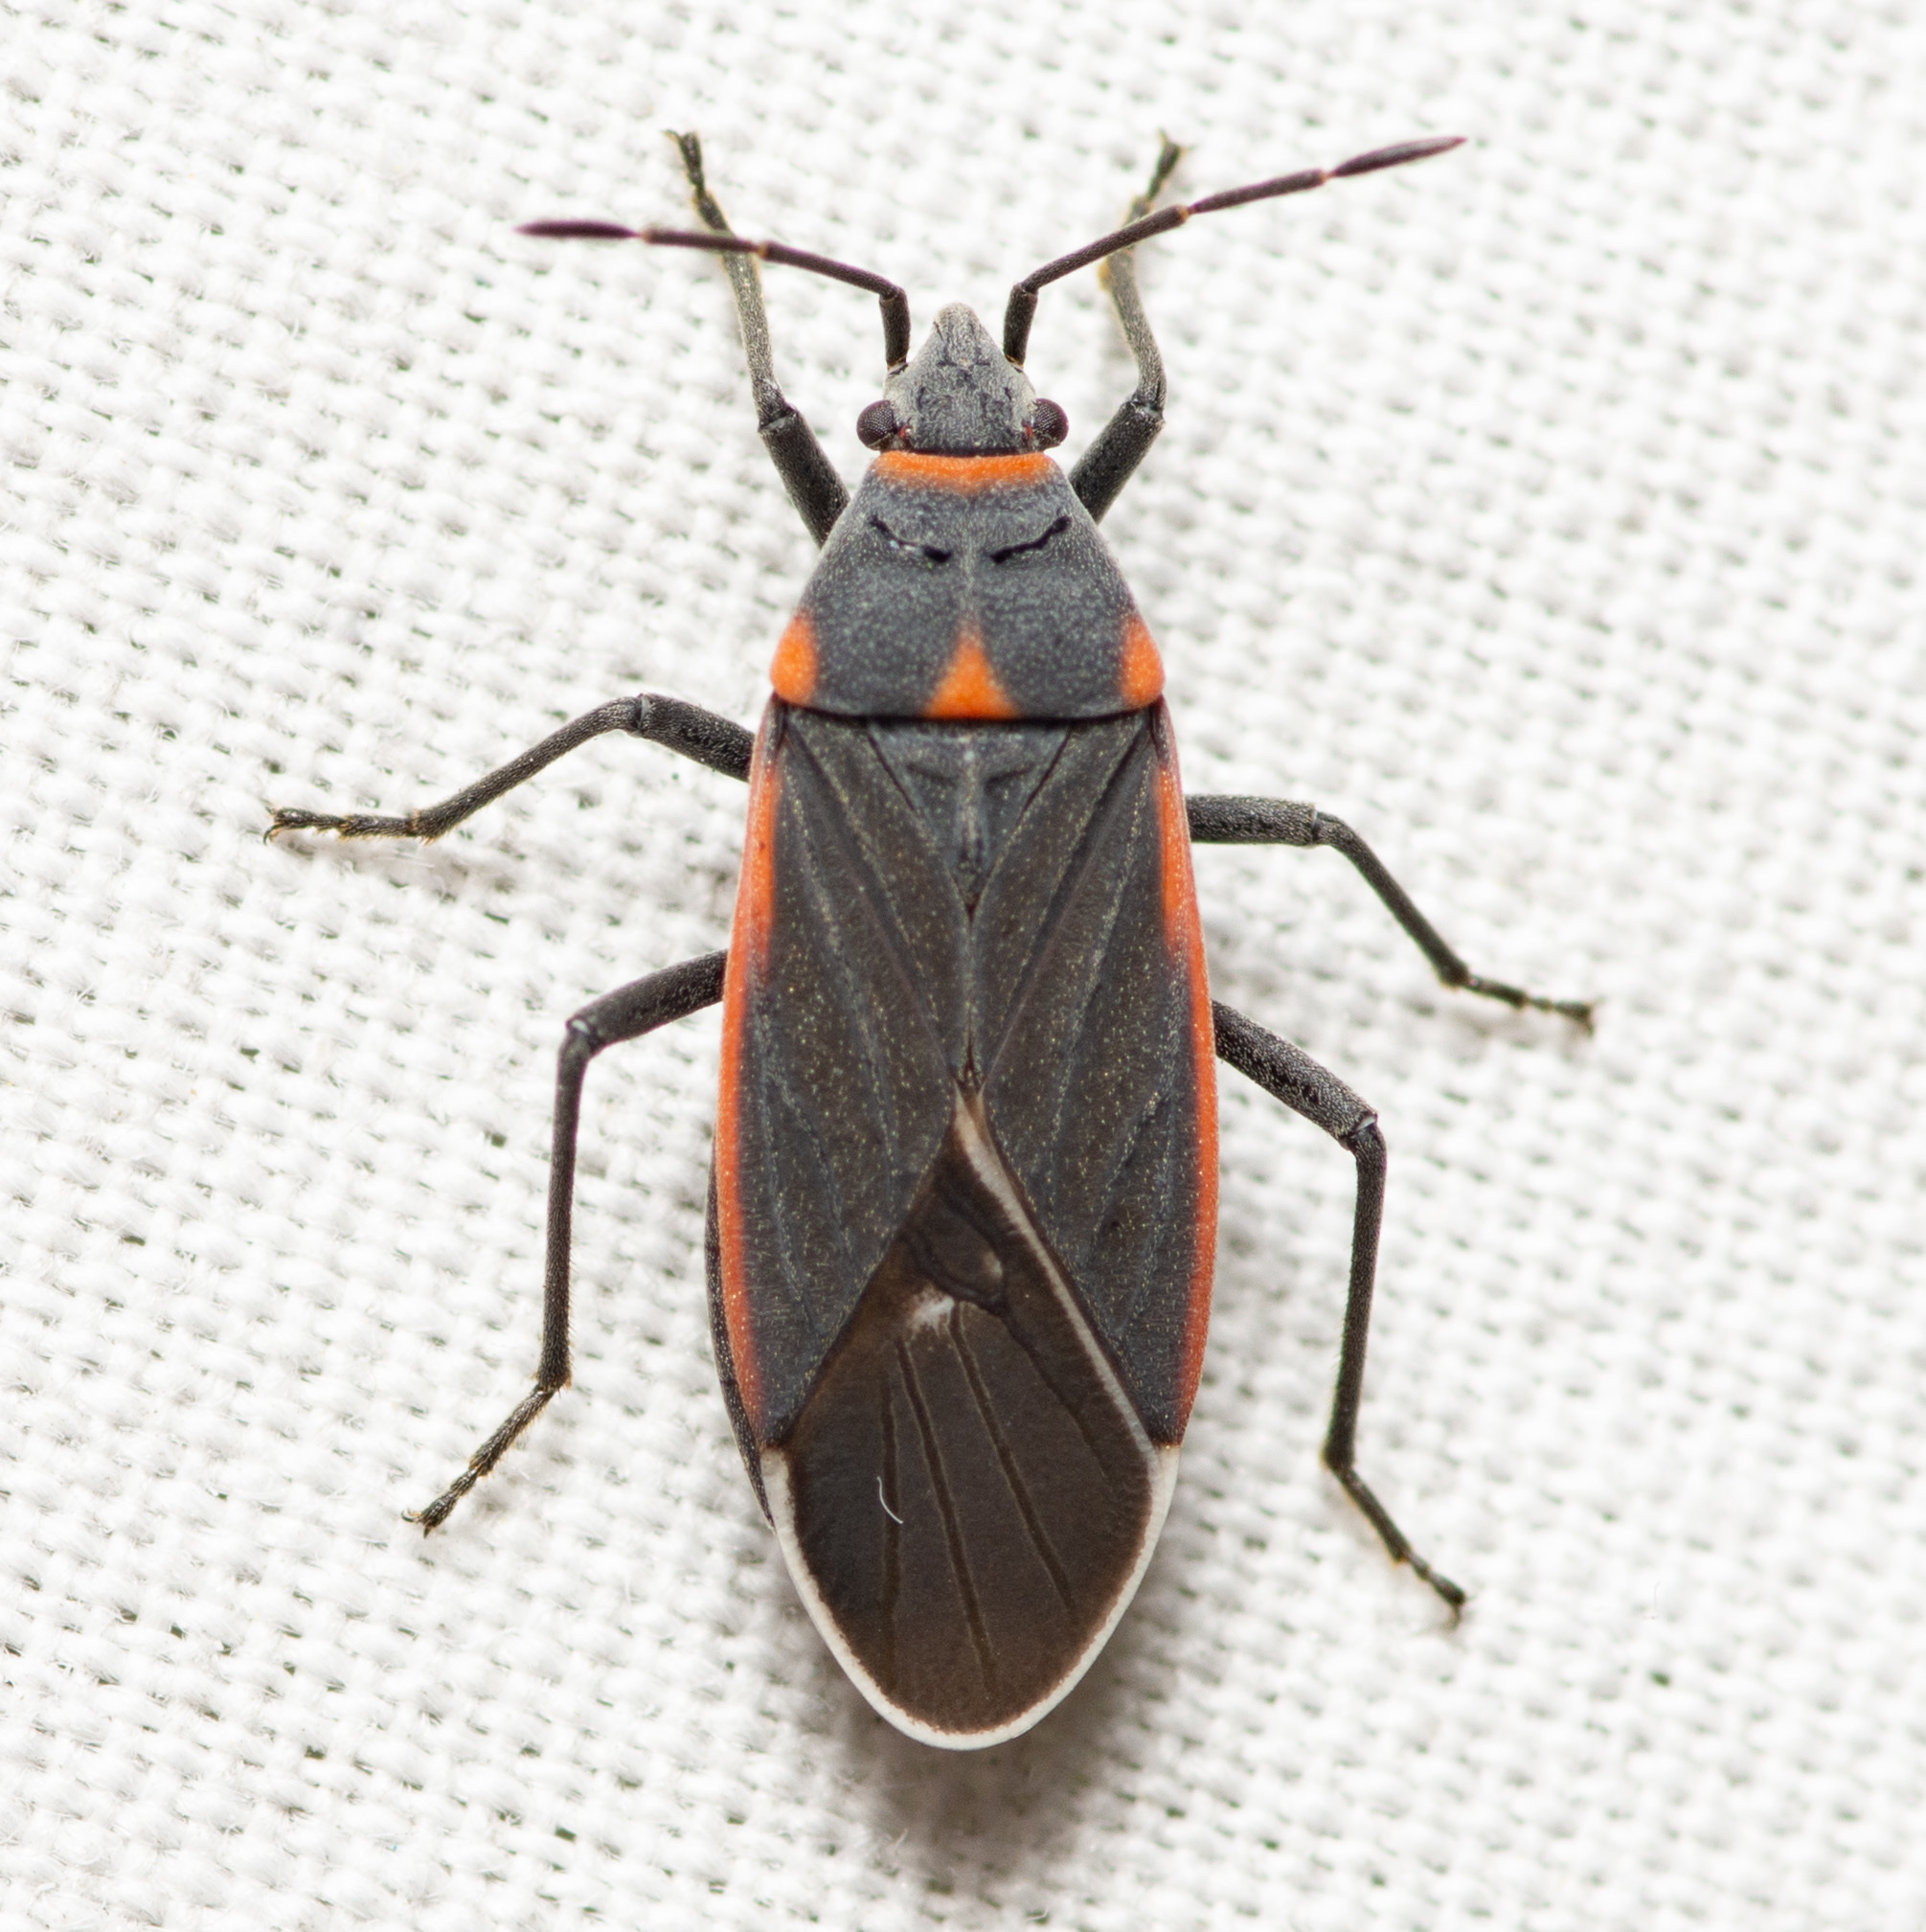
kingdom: Animalia
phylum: Arthropoda
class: Insecta
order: Hemiptera
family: Lygaeidae
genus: Melacoryphus
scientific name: Melacoryphus lateralis
